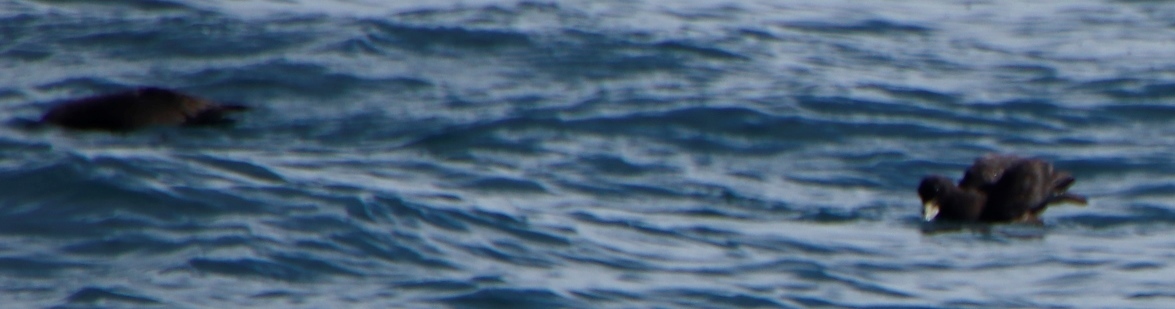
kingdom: Animalia
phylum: Chordata
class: Aves
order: Procellariiformes
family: Procellariidae
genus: Procellaria
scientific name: Procellaria aequinoctialis
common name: White-chinned petrel
